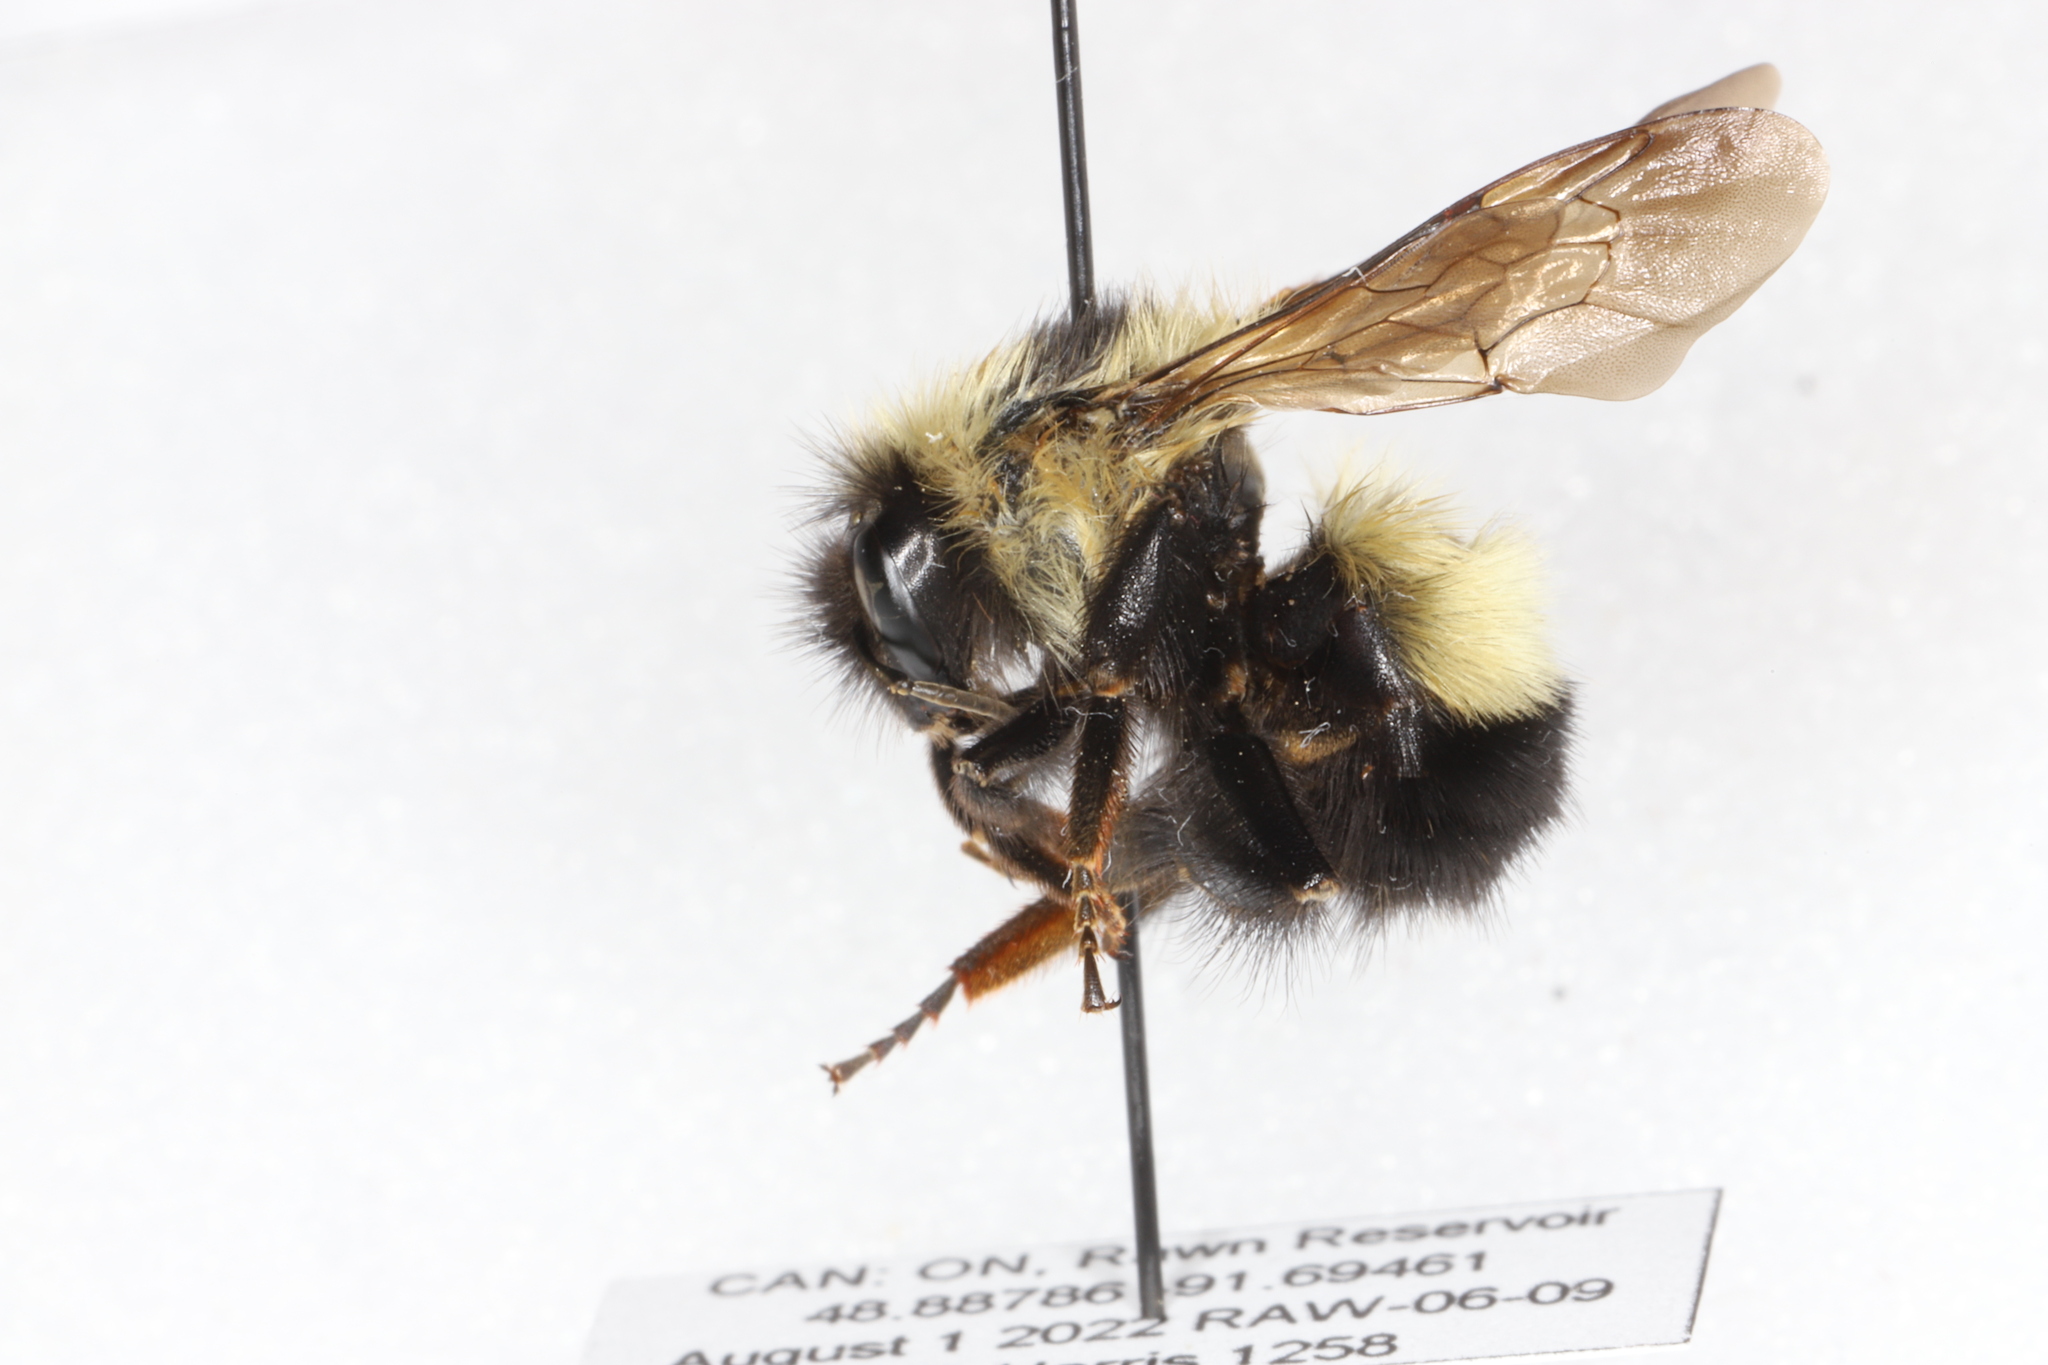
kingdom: Animalia
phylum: Arthropoda
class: Insecta
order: Hymenoptera
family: Apidae
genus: Bombus
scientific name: Bombus sandersoni
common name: Sanderson bumble bee
